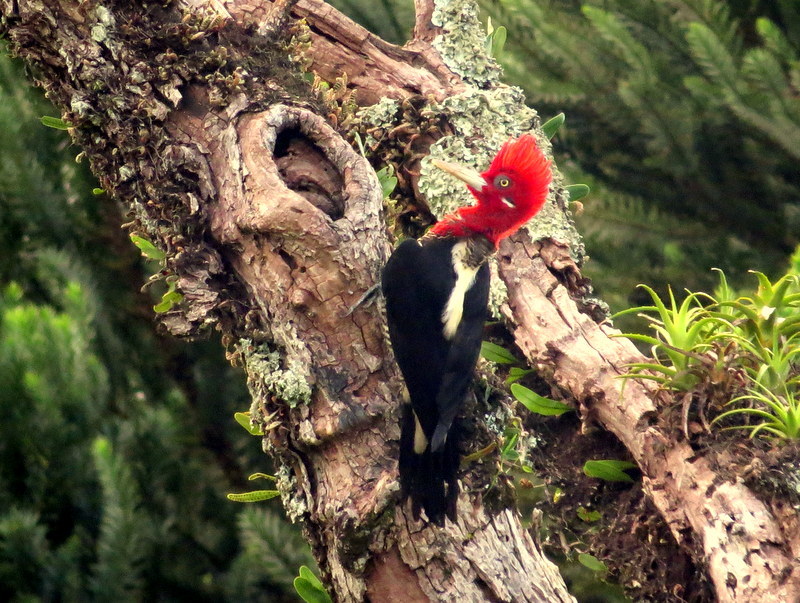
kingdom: Animalia
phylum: Chordata
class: Aves
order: Piciformes
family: Picidae
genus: Campephilus
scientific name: Campephilus robustus
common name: Robust woodpecker
